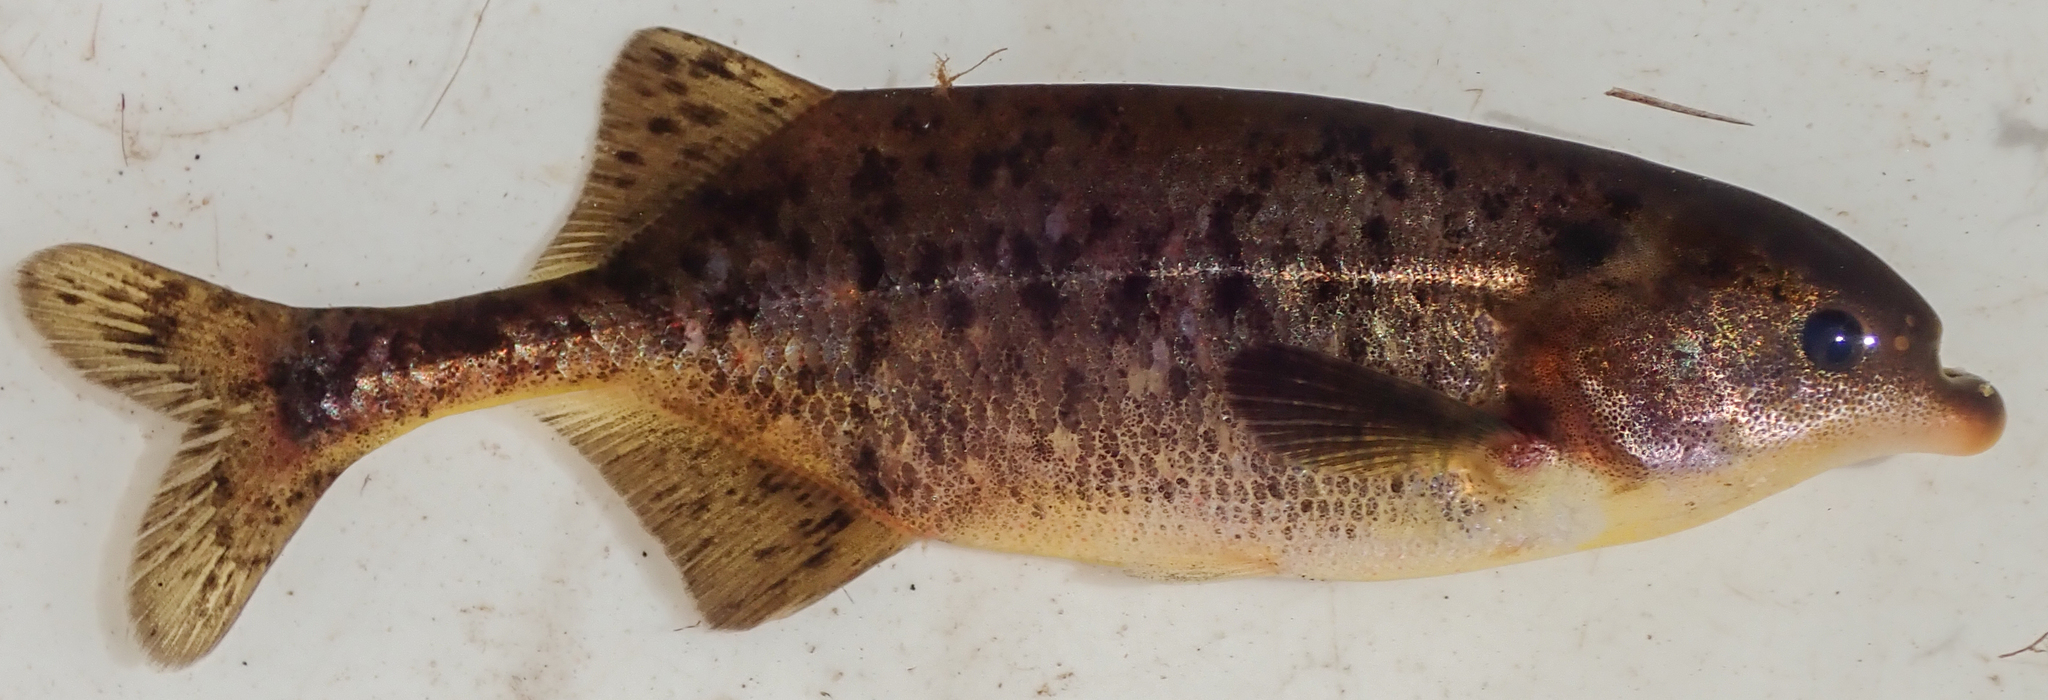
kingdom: Animalia
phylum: Chordata
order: Osteoglossiformes
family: Mormyridae
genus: Marcusenius
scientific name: Marcusenius altisambesi
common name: Bulldog
